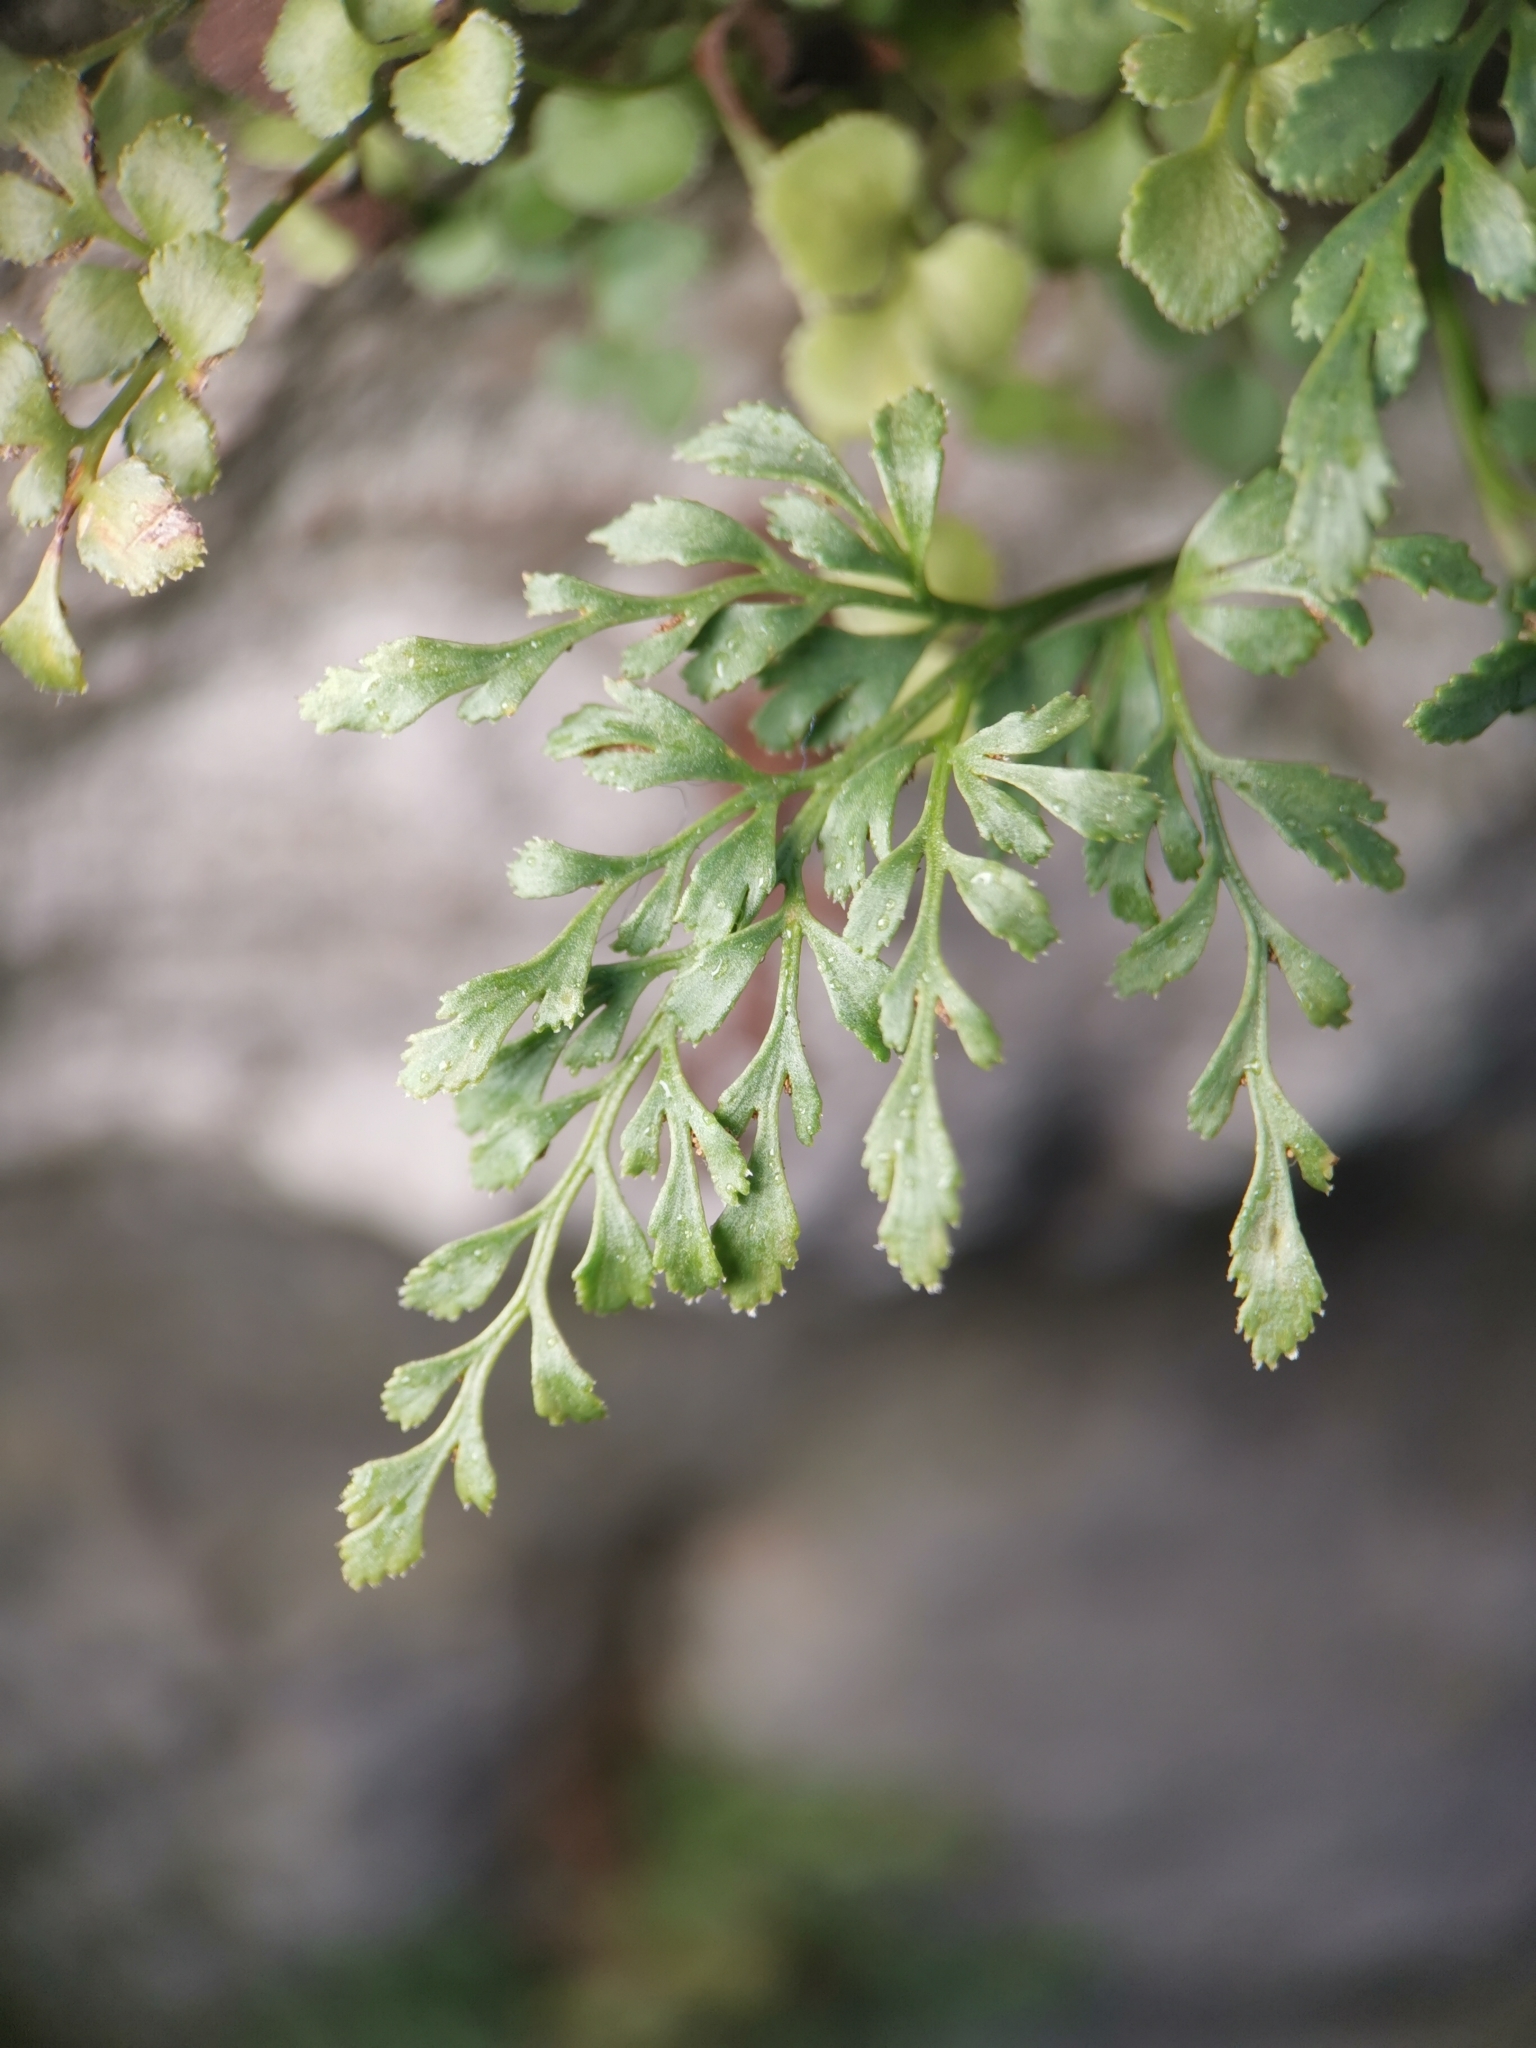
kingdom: Plantae
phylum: Tracheophyta
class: Polypodiopsida
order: Polypodiales
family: Aspleniaceae
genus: Asplenium
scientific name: Asplenium ruta-muraria
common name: Wall-rue
